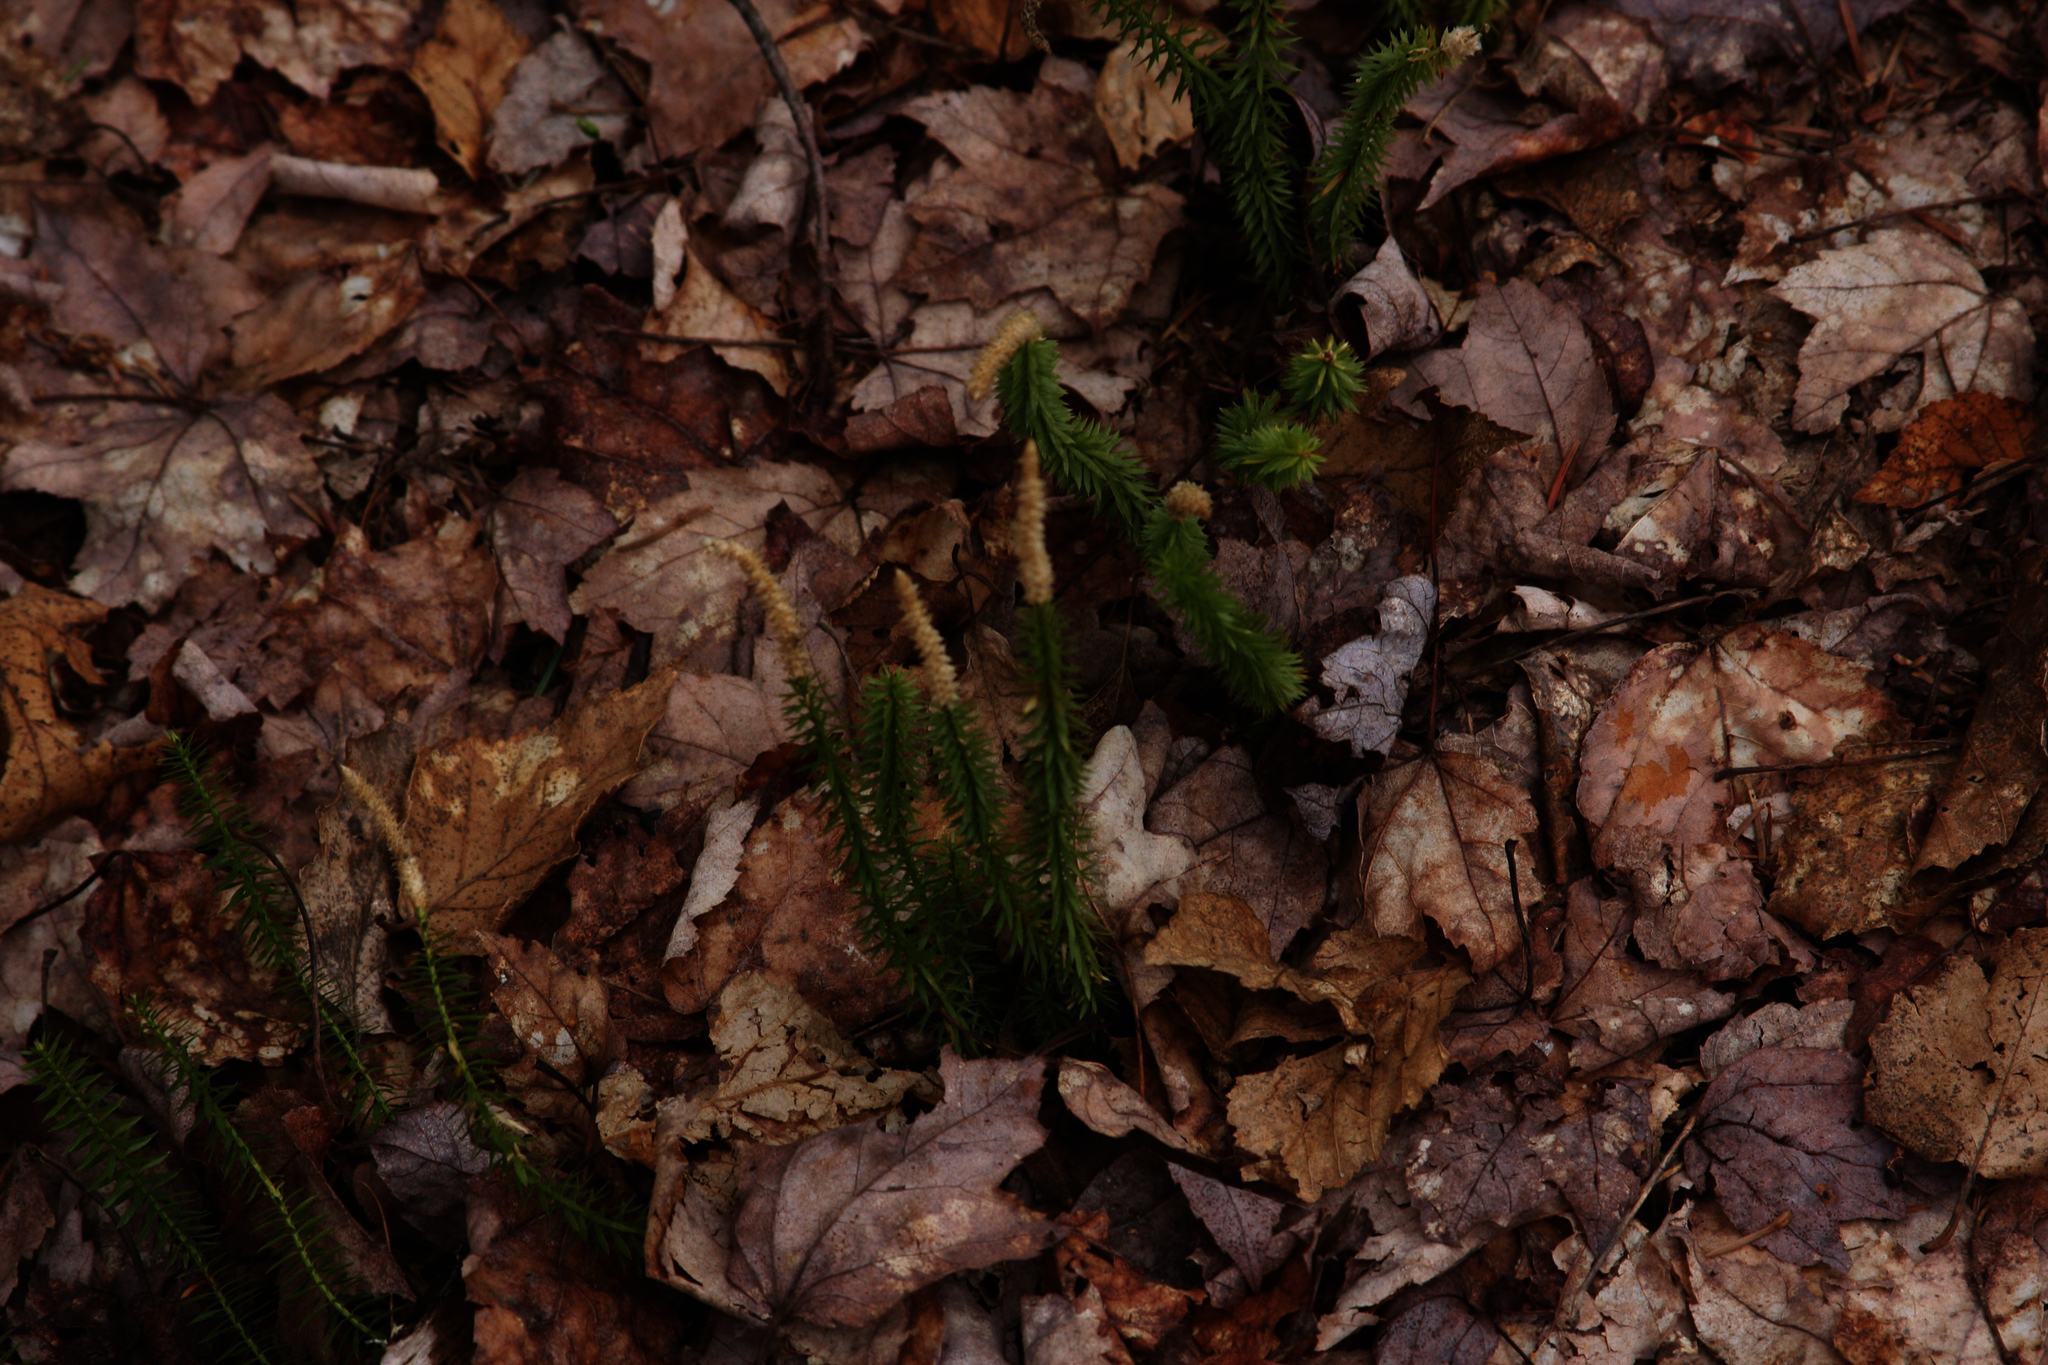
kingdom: Plantae
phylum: Tracheophyta
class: Lycopodiopsida
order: Lycopodiales
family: Lycopodiaceae
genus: Spinulum
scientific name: Spinulum annotinum
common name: Interrupted club-moss
